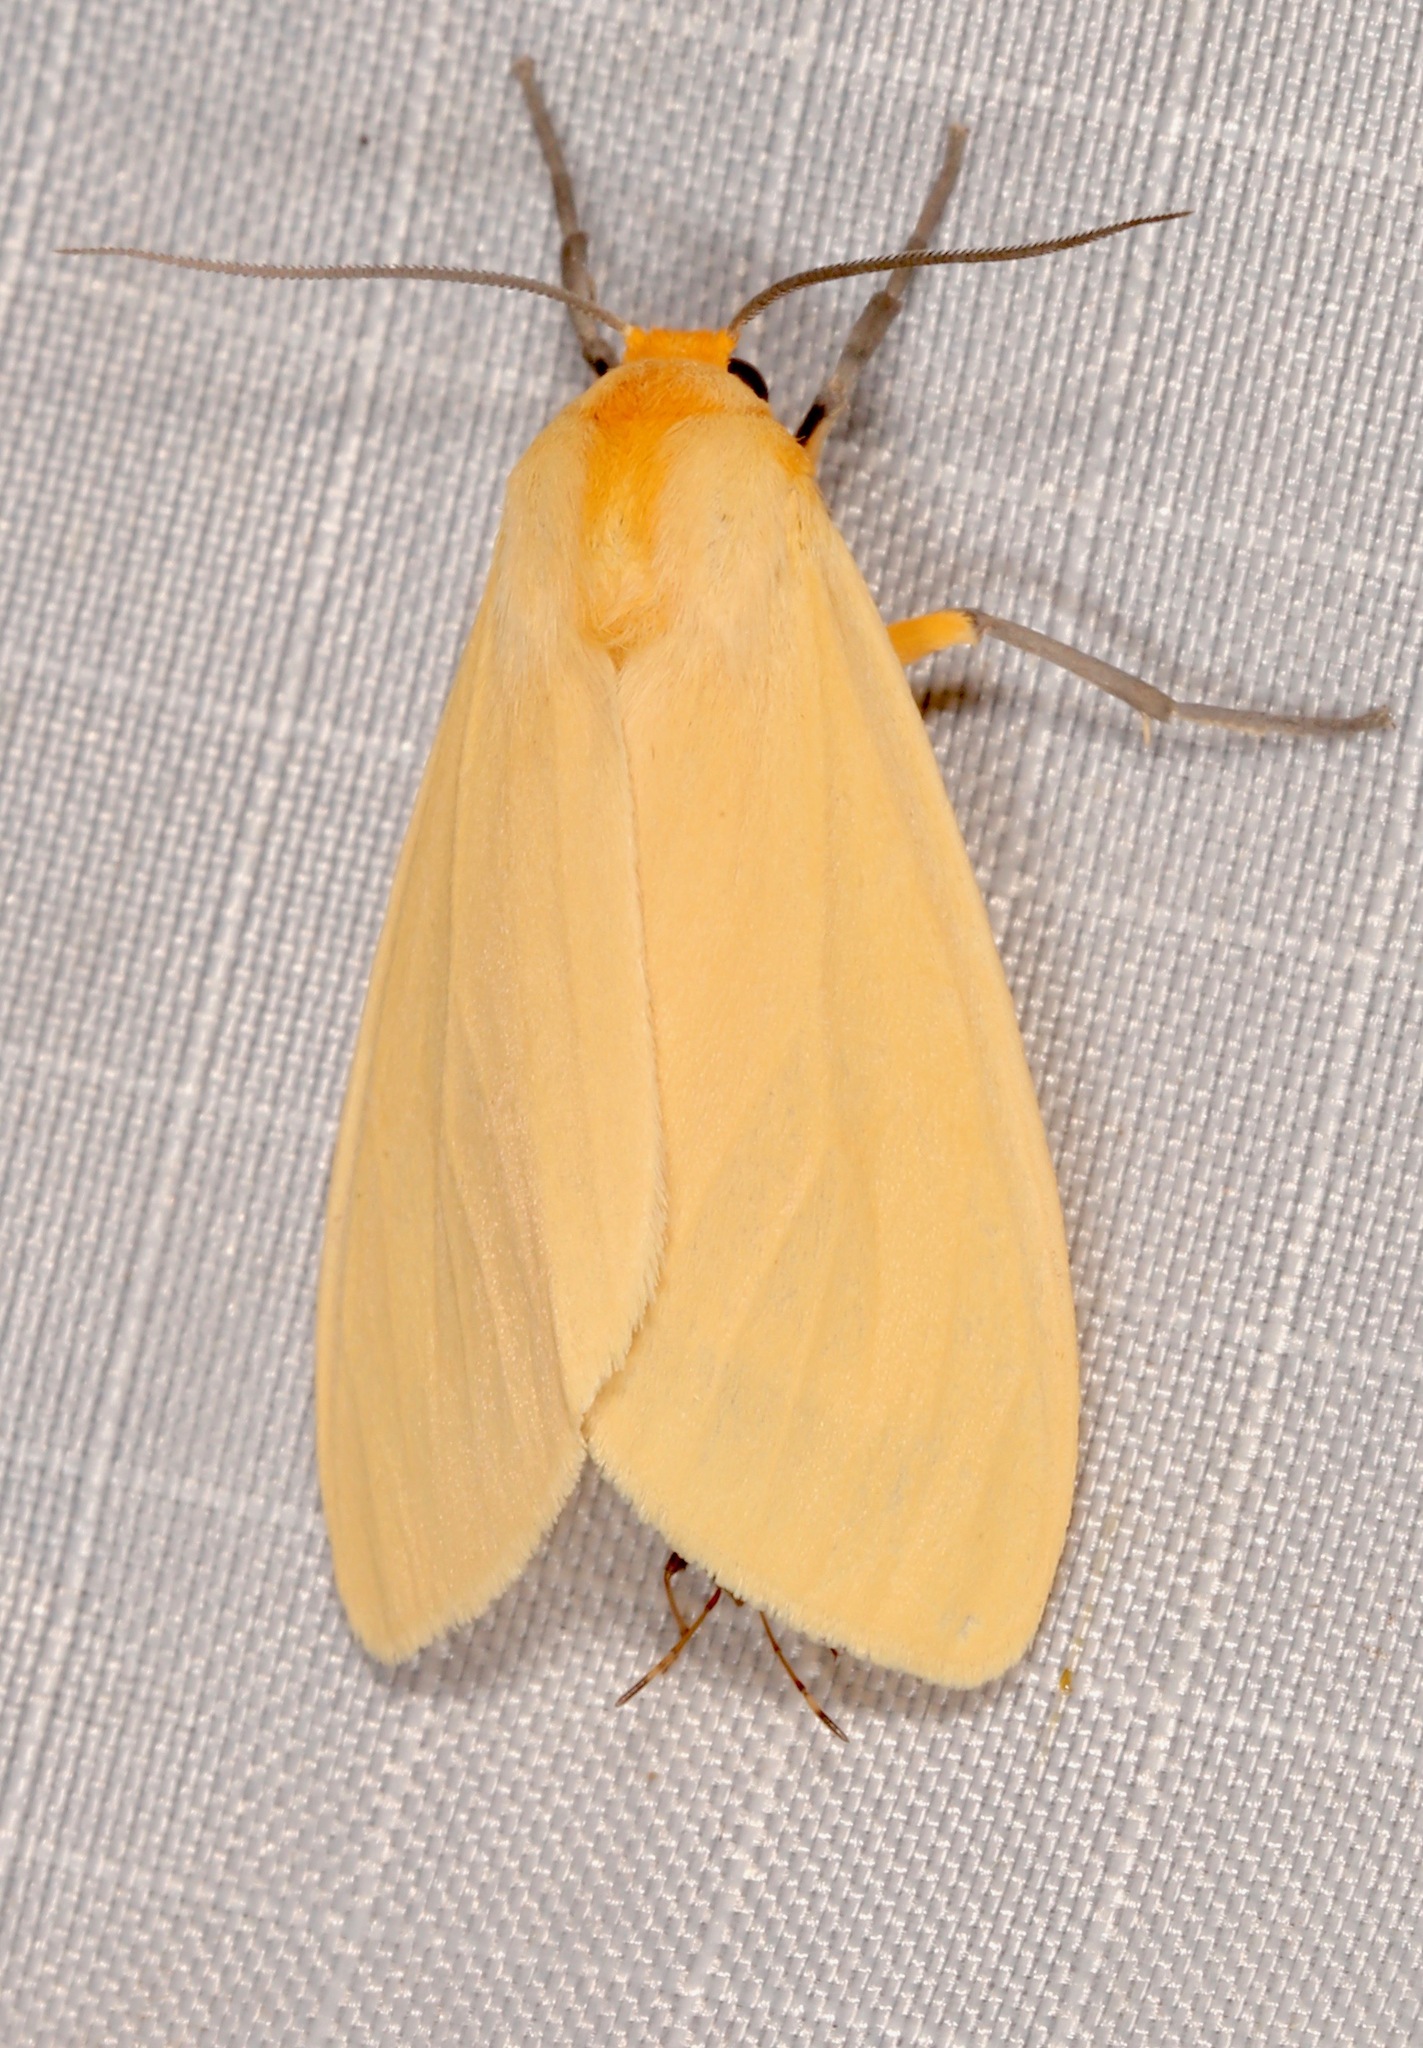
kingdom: Animalia
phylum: Arthropoda
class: Insecta
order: Lepidoptera
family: Erebidae
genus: Pareuchaetes
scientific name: Pareuchaetes insulata
